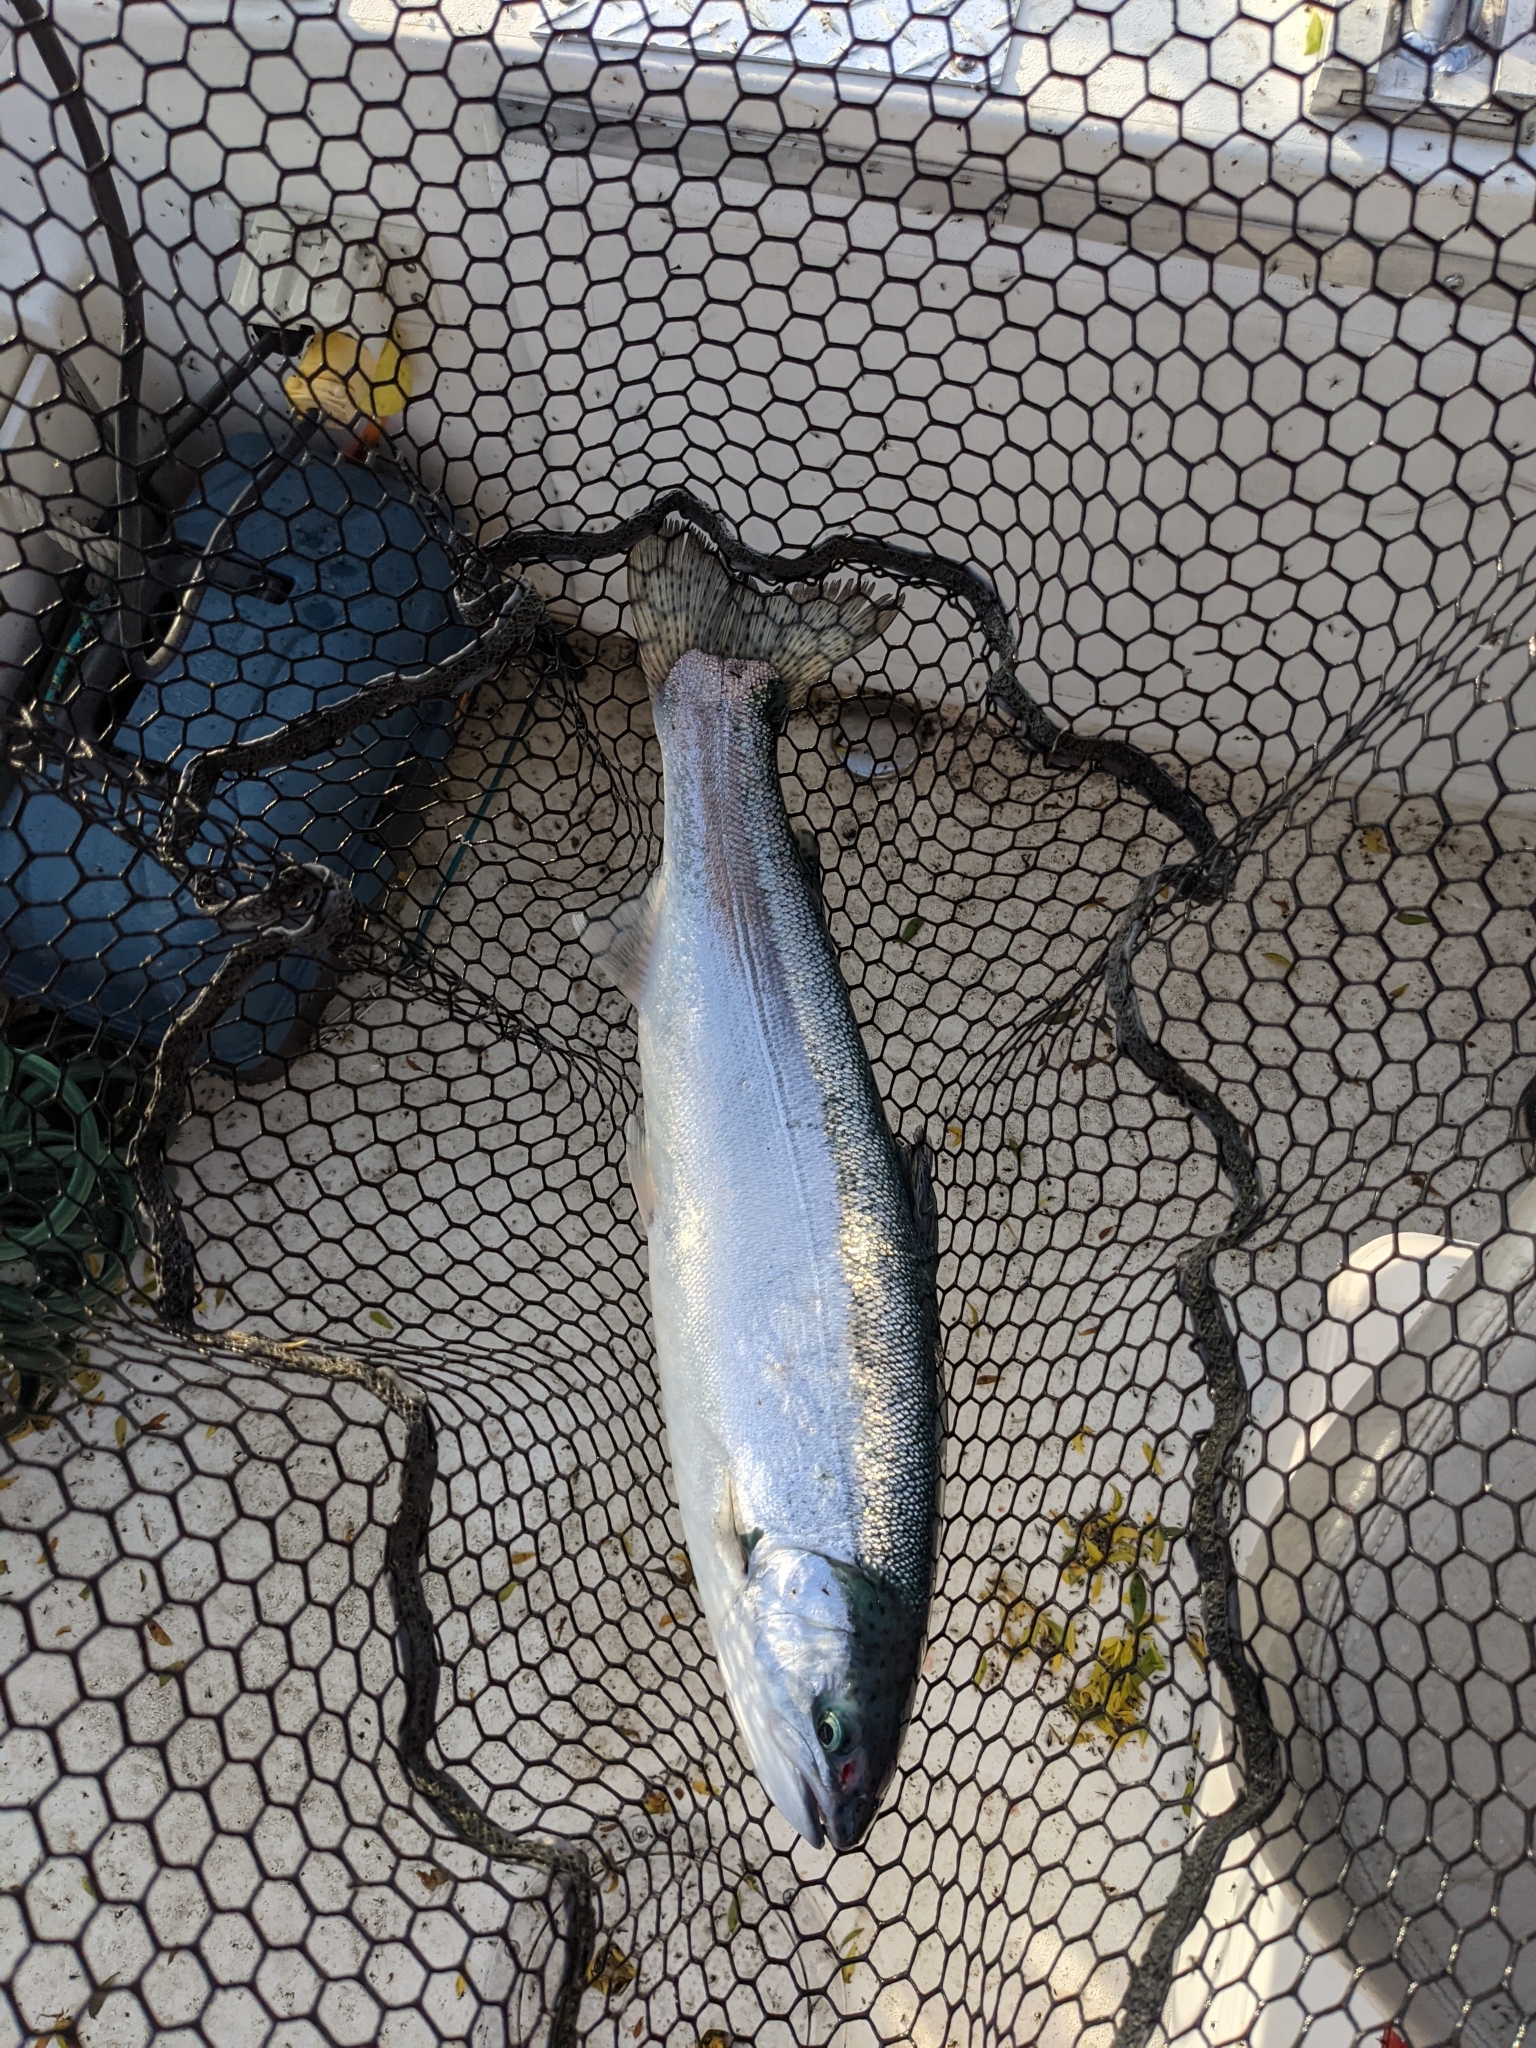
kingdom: Animalia
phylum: Chordata
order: Salmoniformes
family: Salmonidae
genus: Oncorhynchus
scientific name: Oncorhynchus mykiss
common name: Rainbow trout
